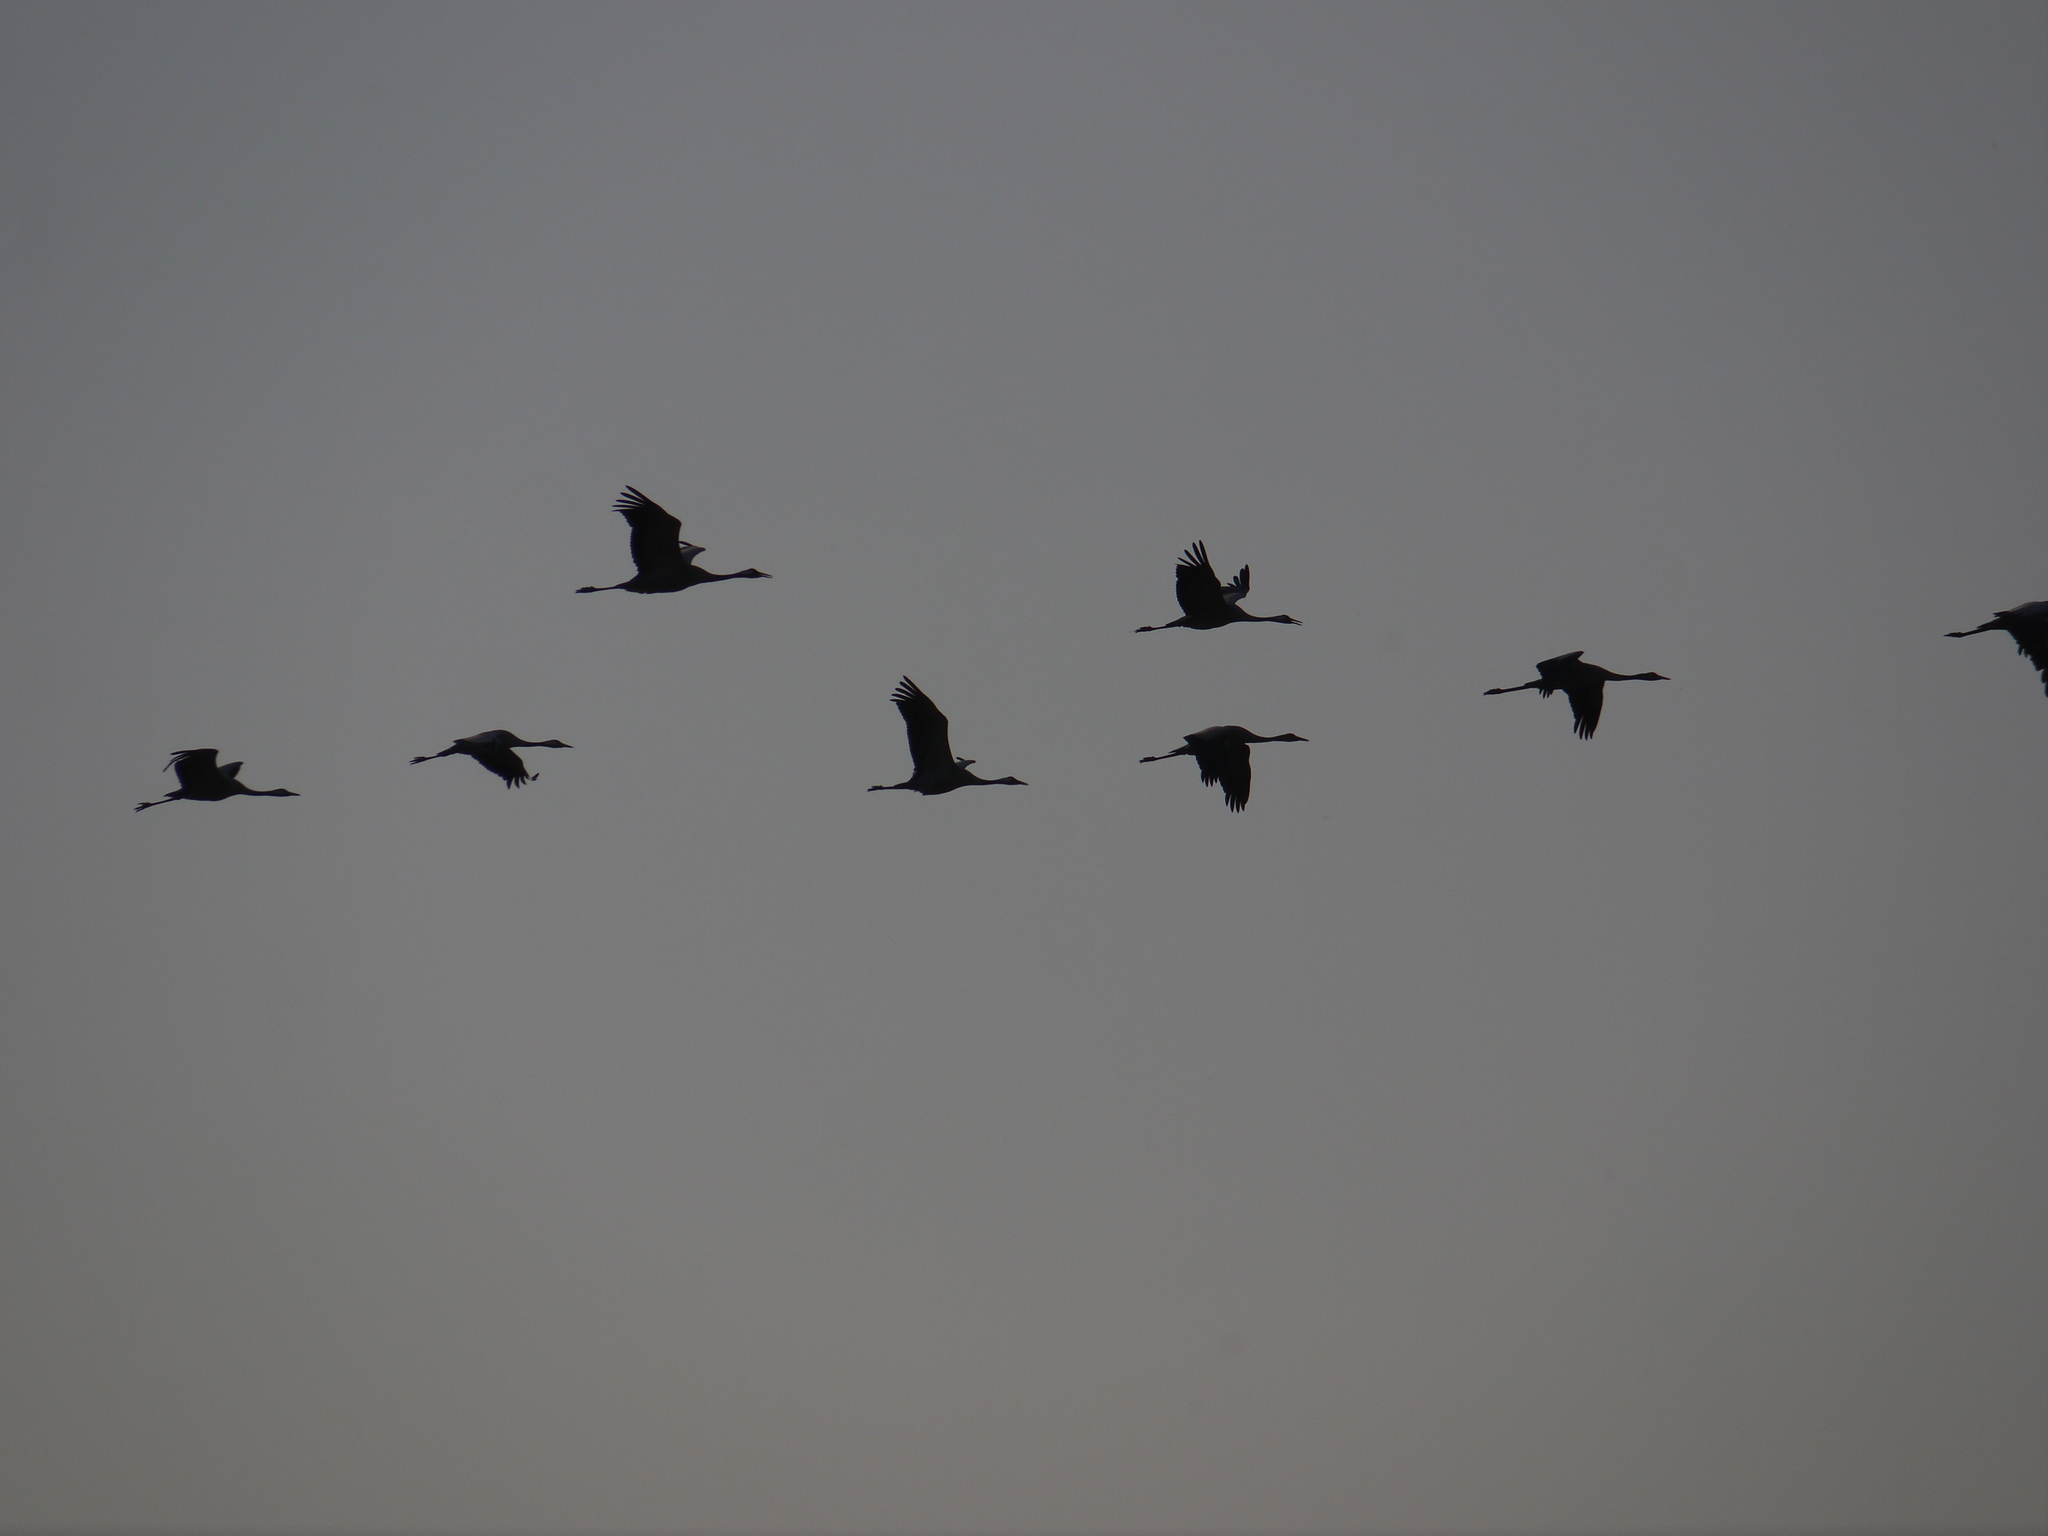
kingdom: Animalia
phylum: Chordata
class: Aves
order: Gruiformes
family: Gruidae
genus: Grus
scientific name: Grus grus
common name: Common crane
